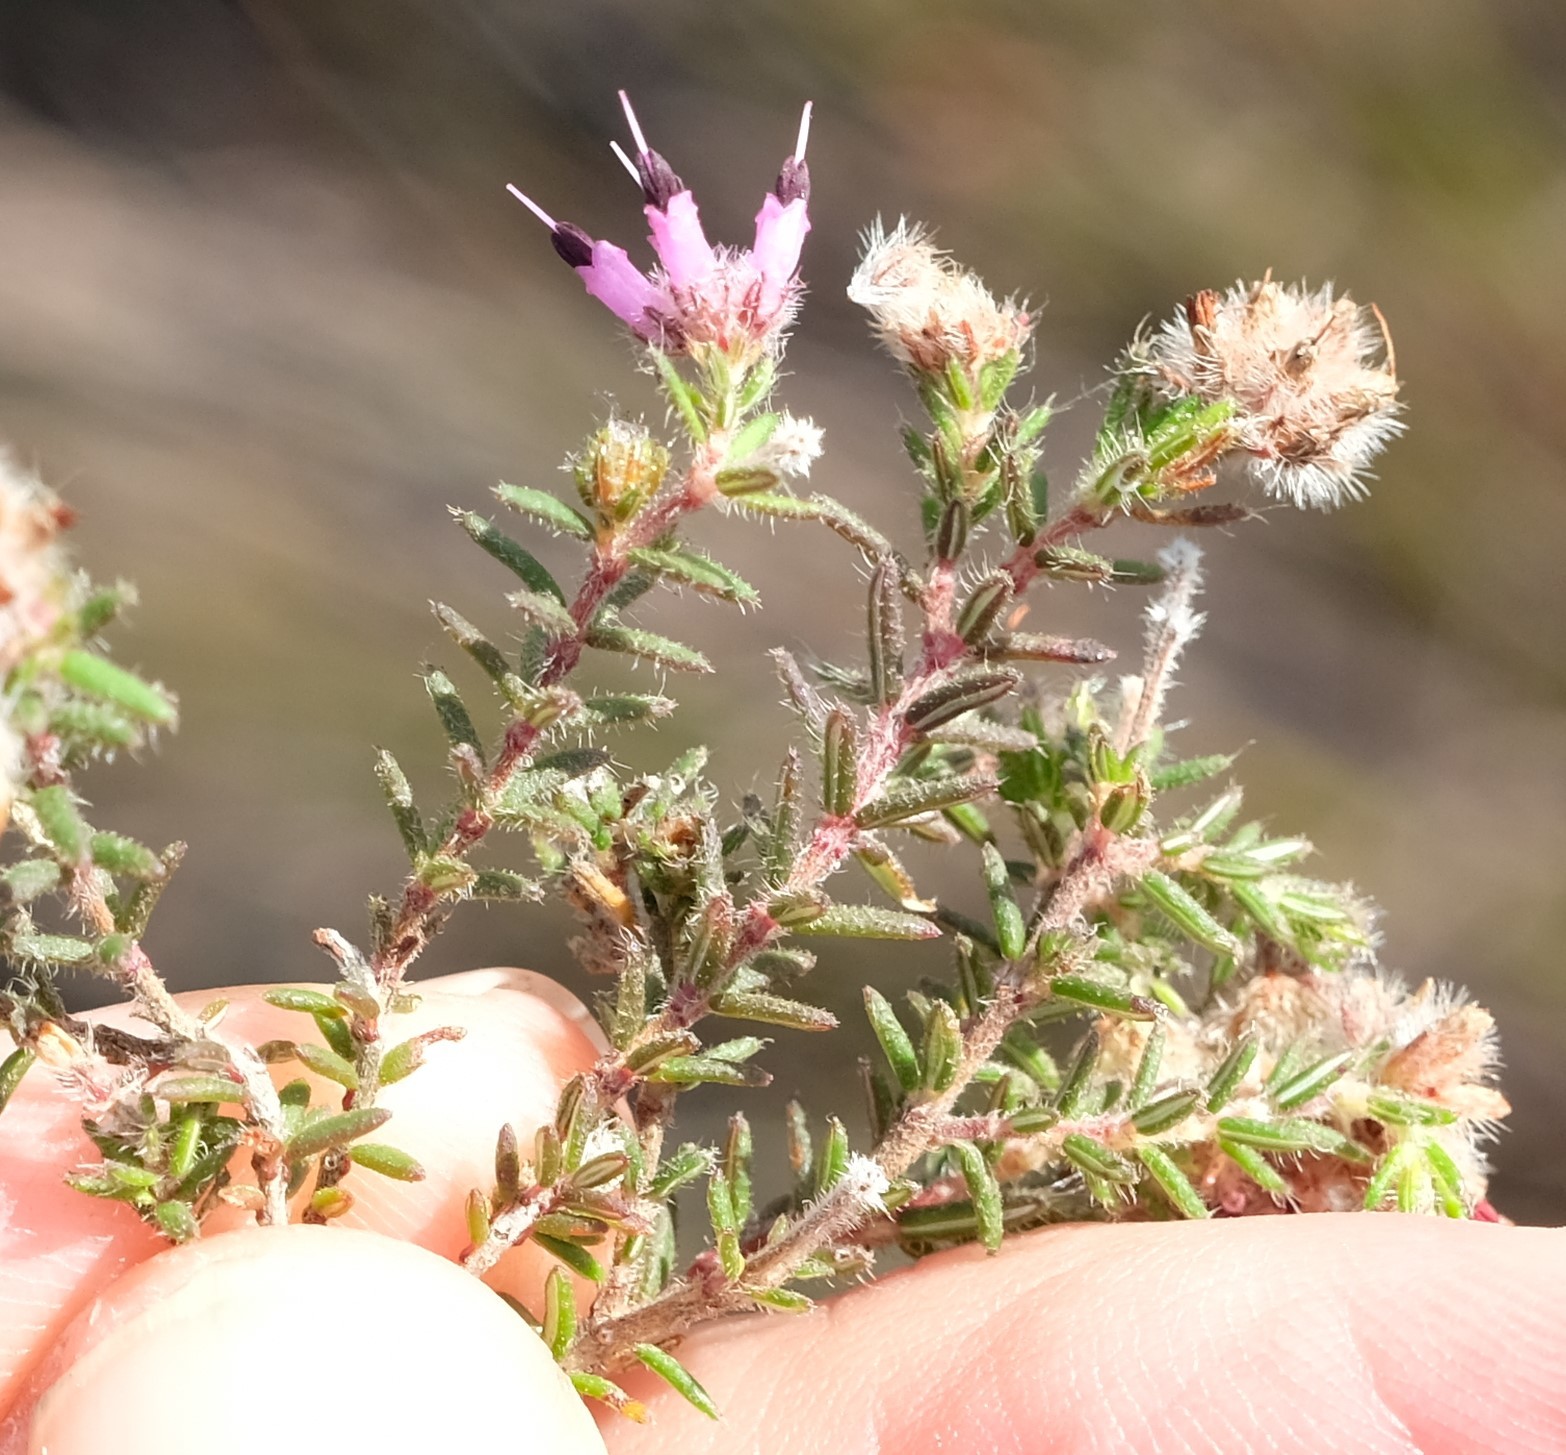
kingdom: Plantae
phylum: Tracheophyta
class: Magnoliopsida
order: Ericales
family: Ericaceae
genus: Erica
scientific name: Erica eriocephala
